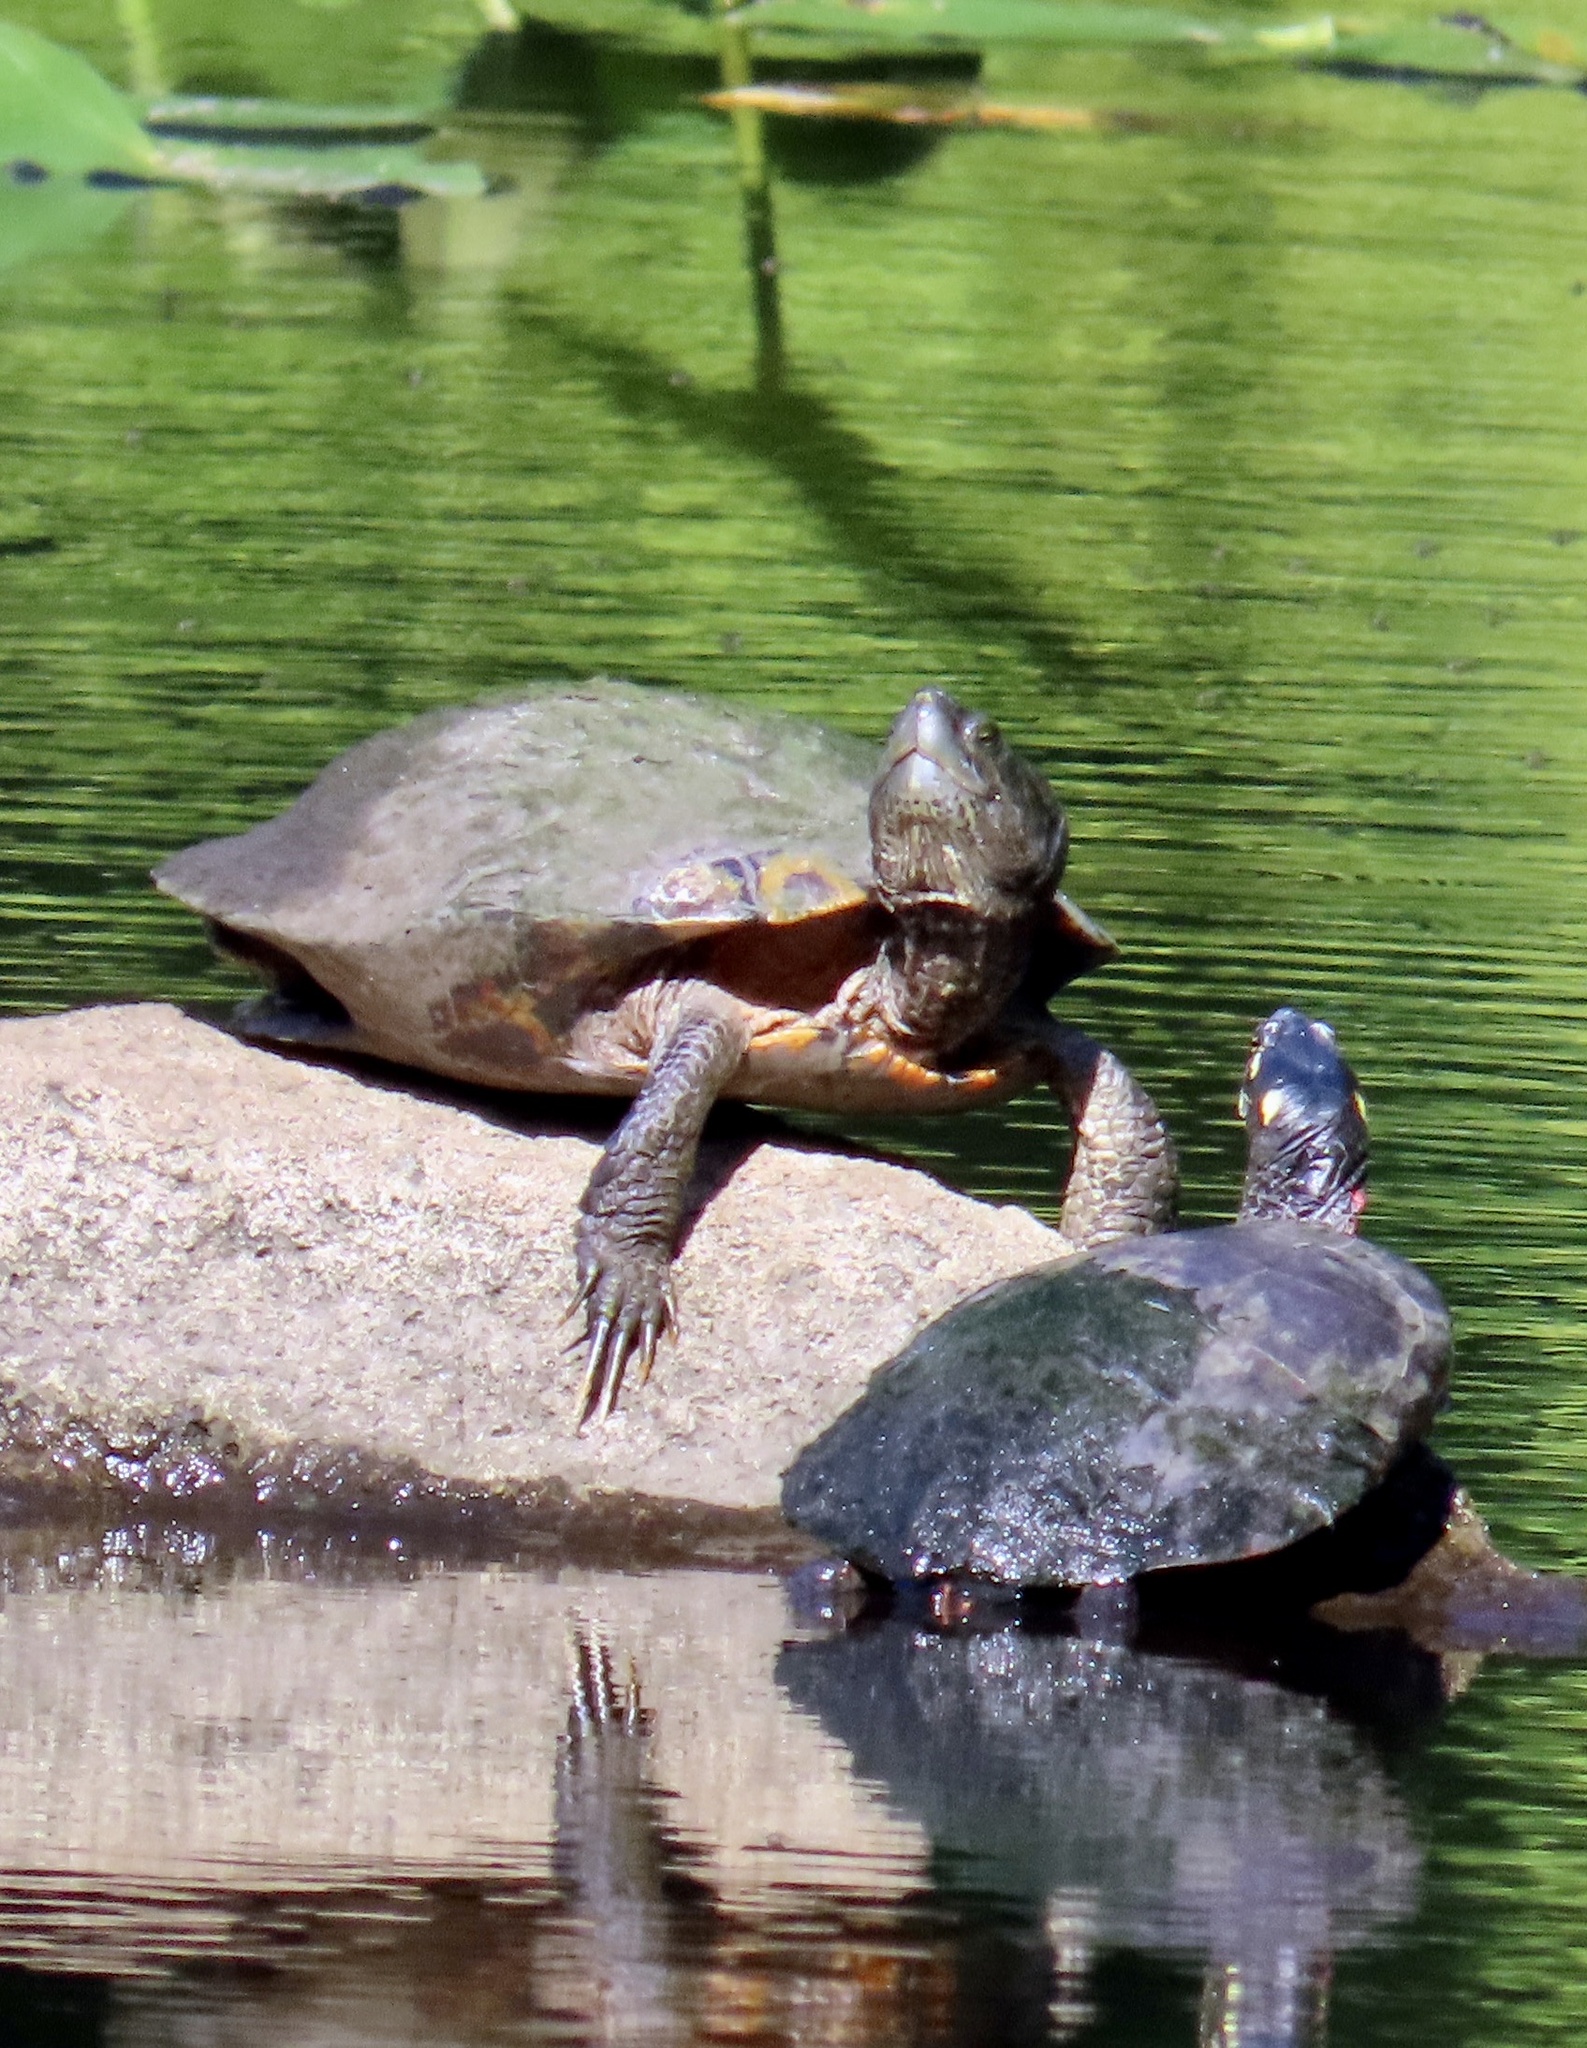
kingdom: Animalia
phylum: Chordata
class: Testudines
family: Emydidae
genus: Trachemys
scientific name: Trachemys scripta
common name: Slider
